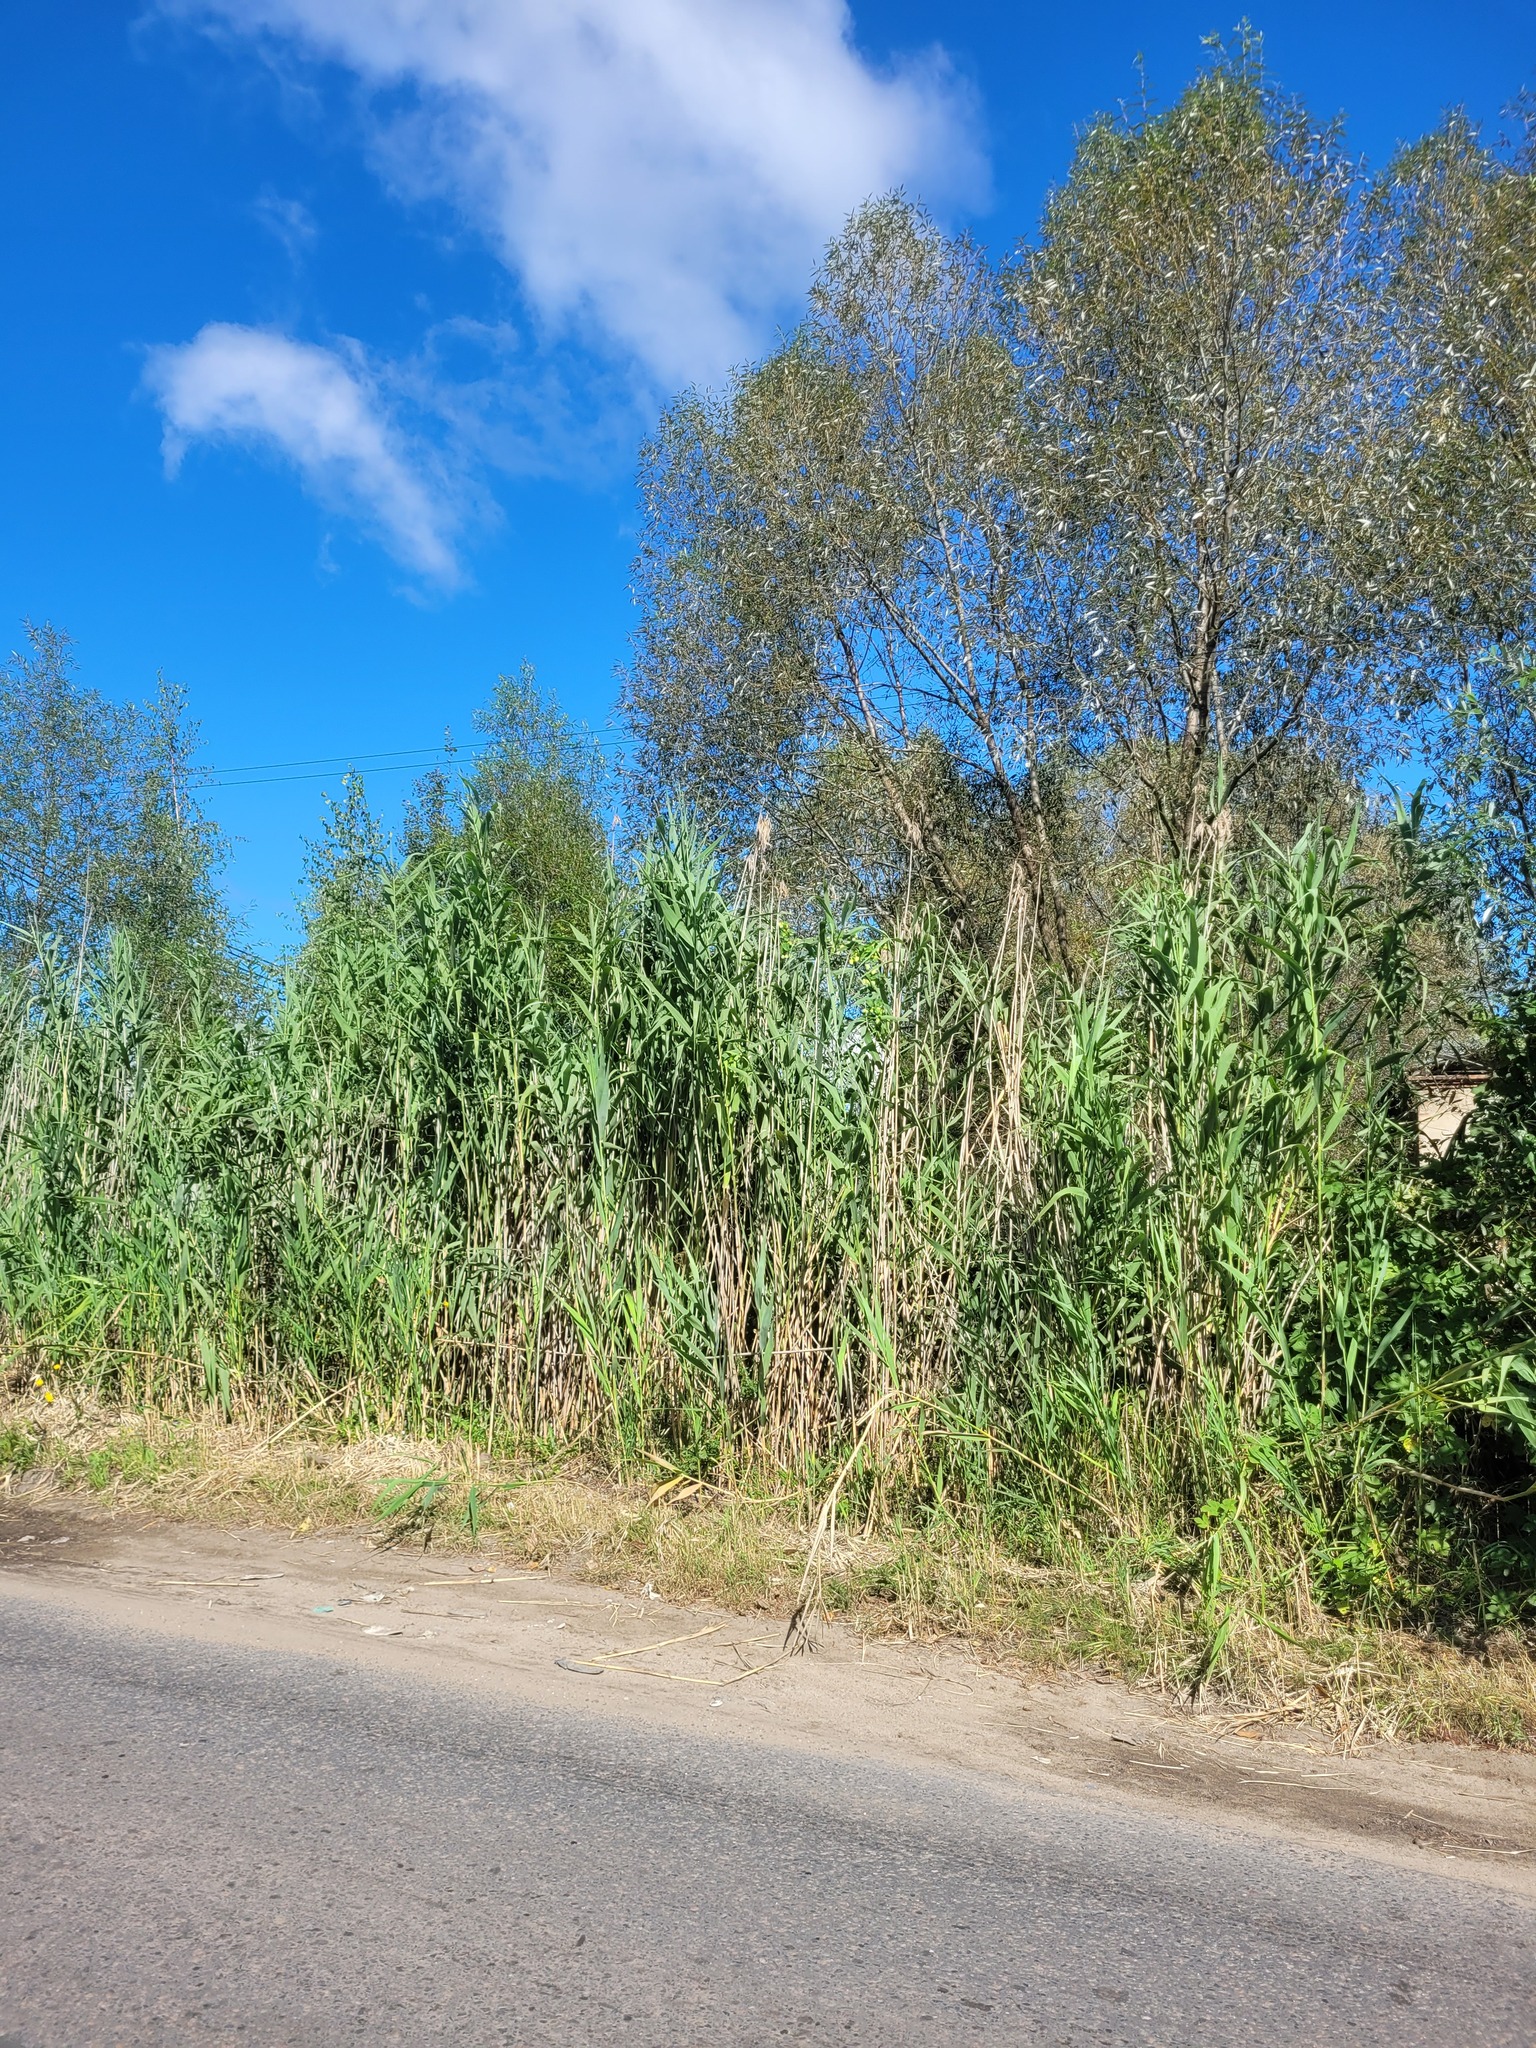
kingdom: Plantae
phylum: Tracheophyta
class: Liliopsida
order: Poales
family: Poaceae
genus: Phragmites
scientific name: Phragmites australis
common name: Common reed
